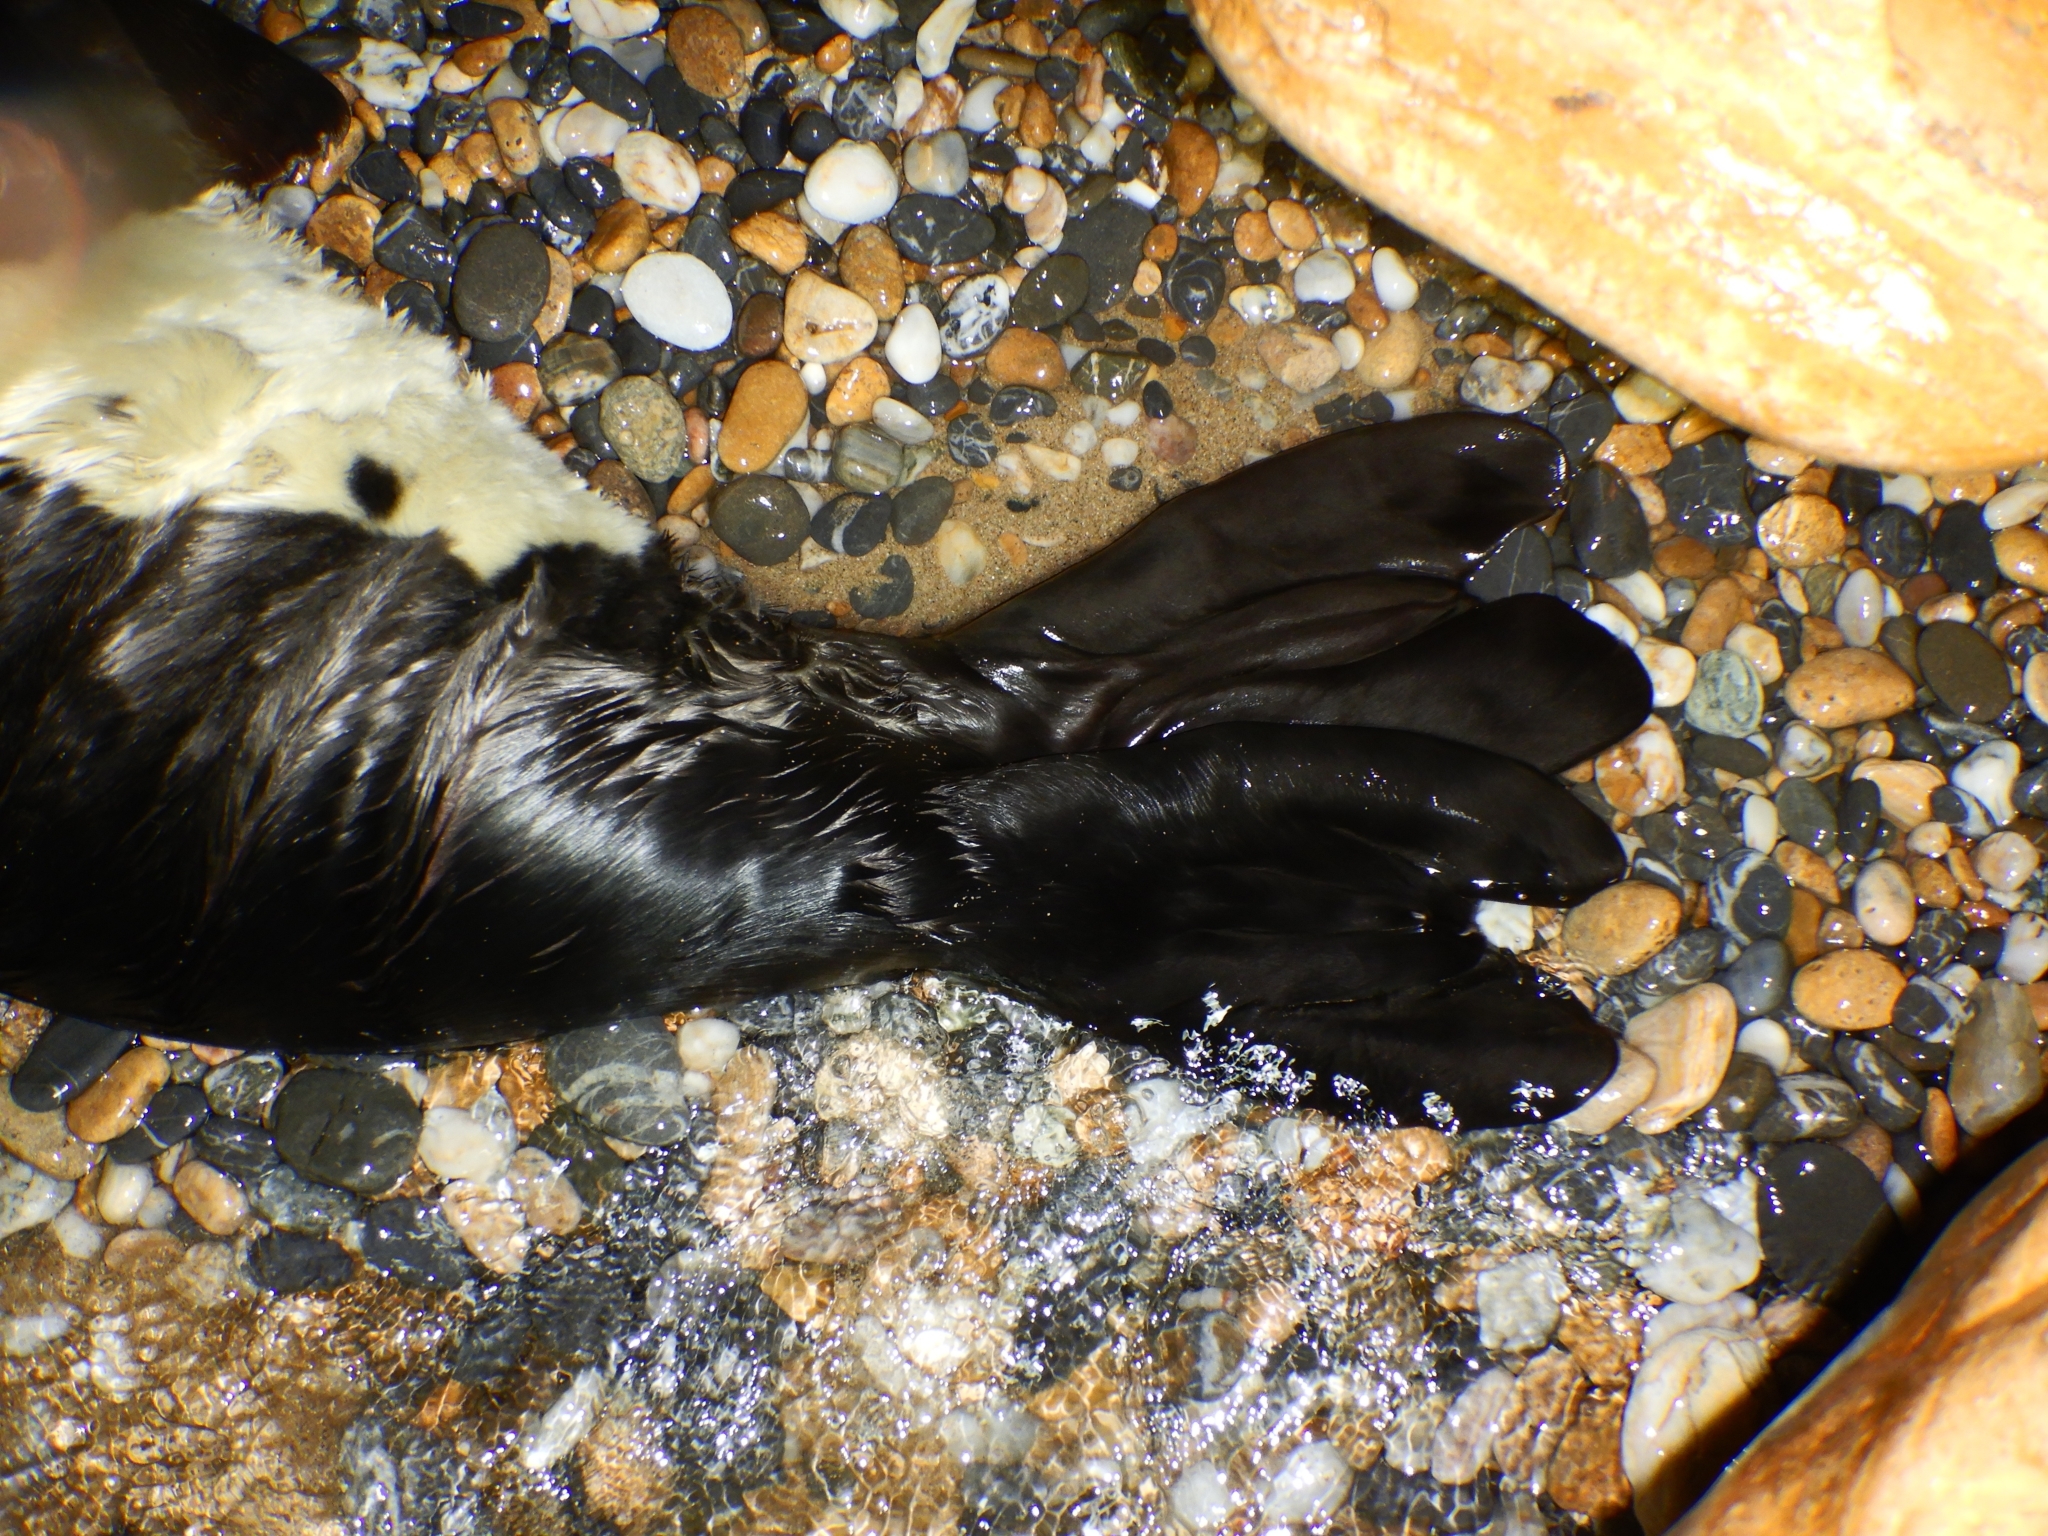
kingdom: Animalia
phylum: Chordata
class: Mammalia
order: Carnivora
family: Phocidae
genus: Monachus
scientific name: Monachus monachus
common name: Mediterranean monk seal
